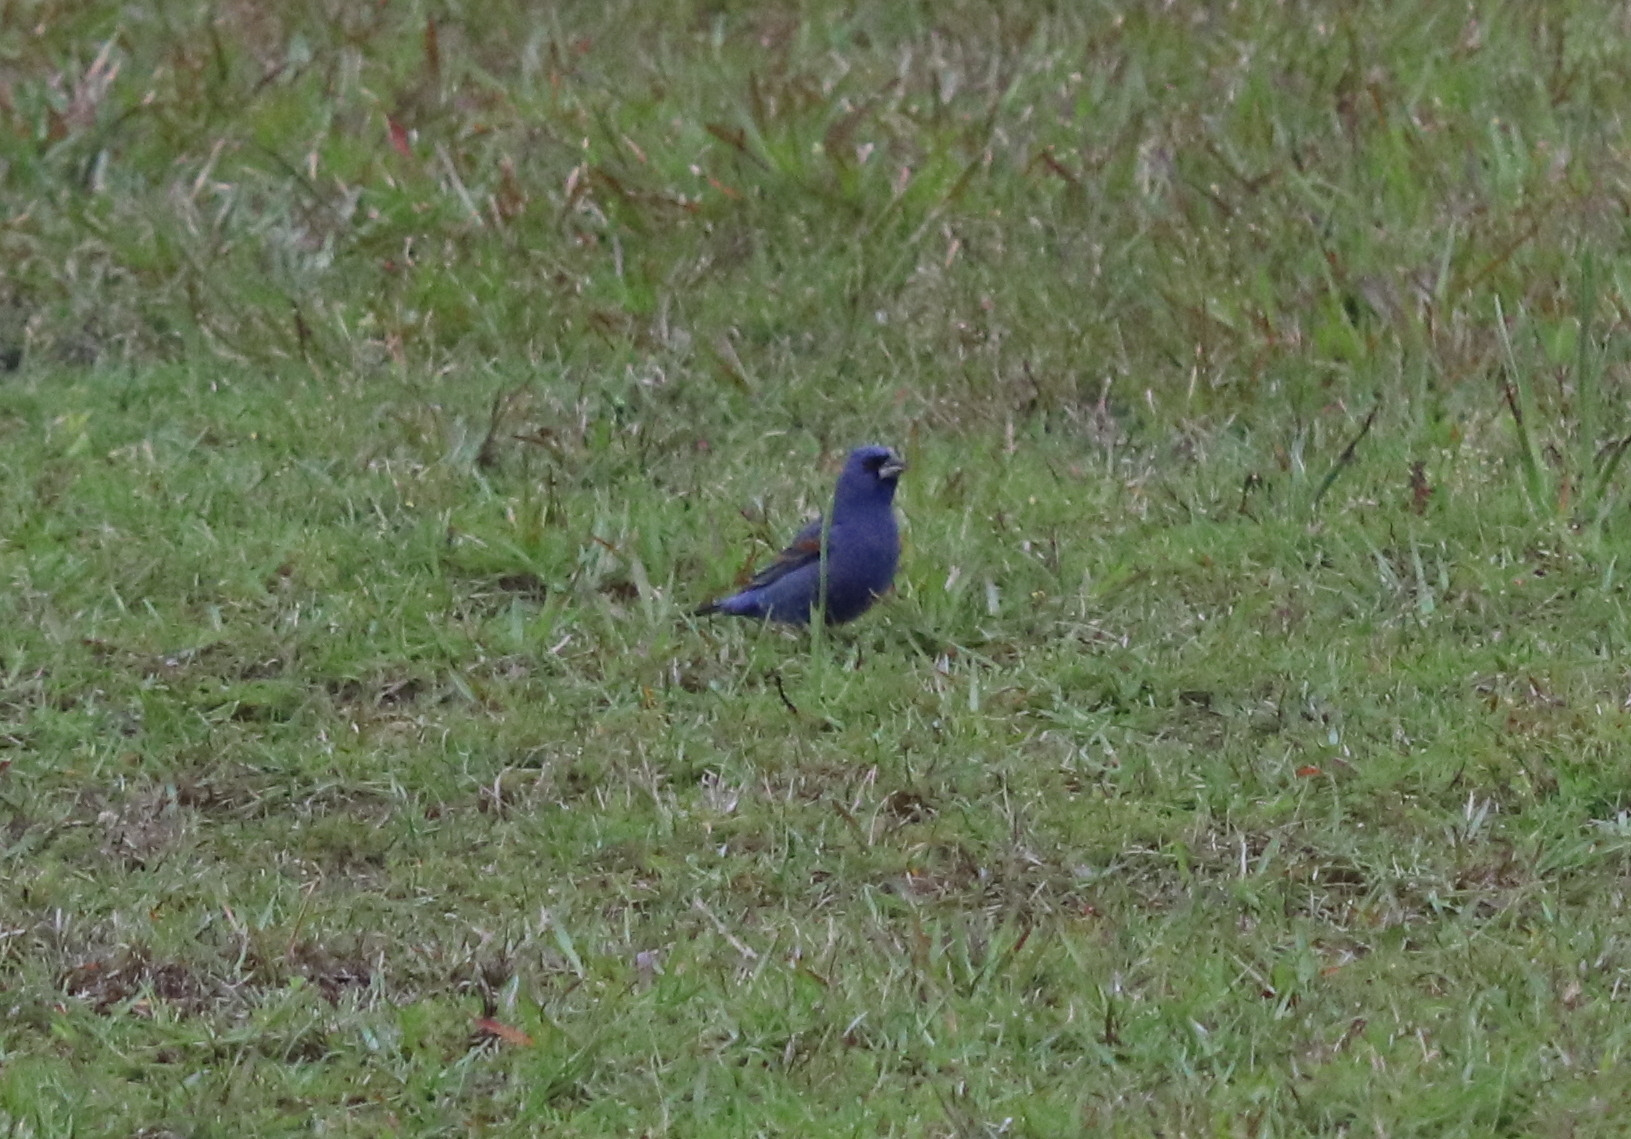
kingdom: Animalia
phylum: Chordata
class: Aves
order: Passeriformes
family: Cardinalidae
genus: Passerina
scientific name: Passerina caerulea
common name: Blue grosbeak
